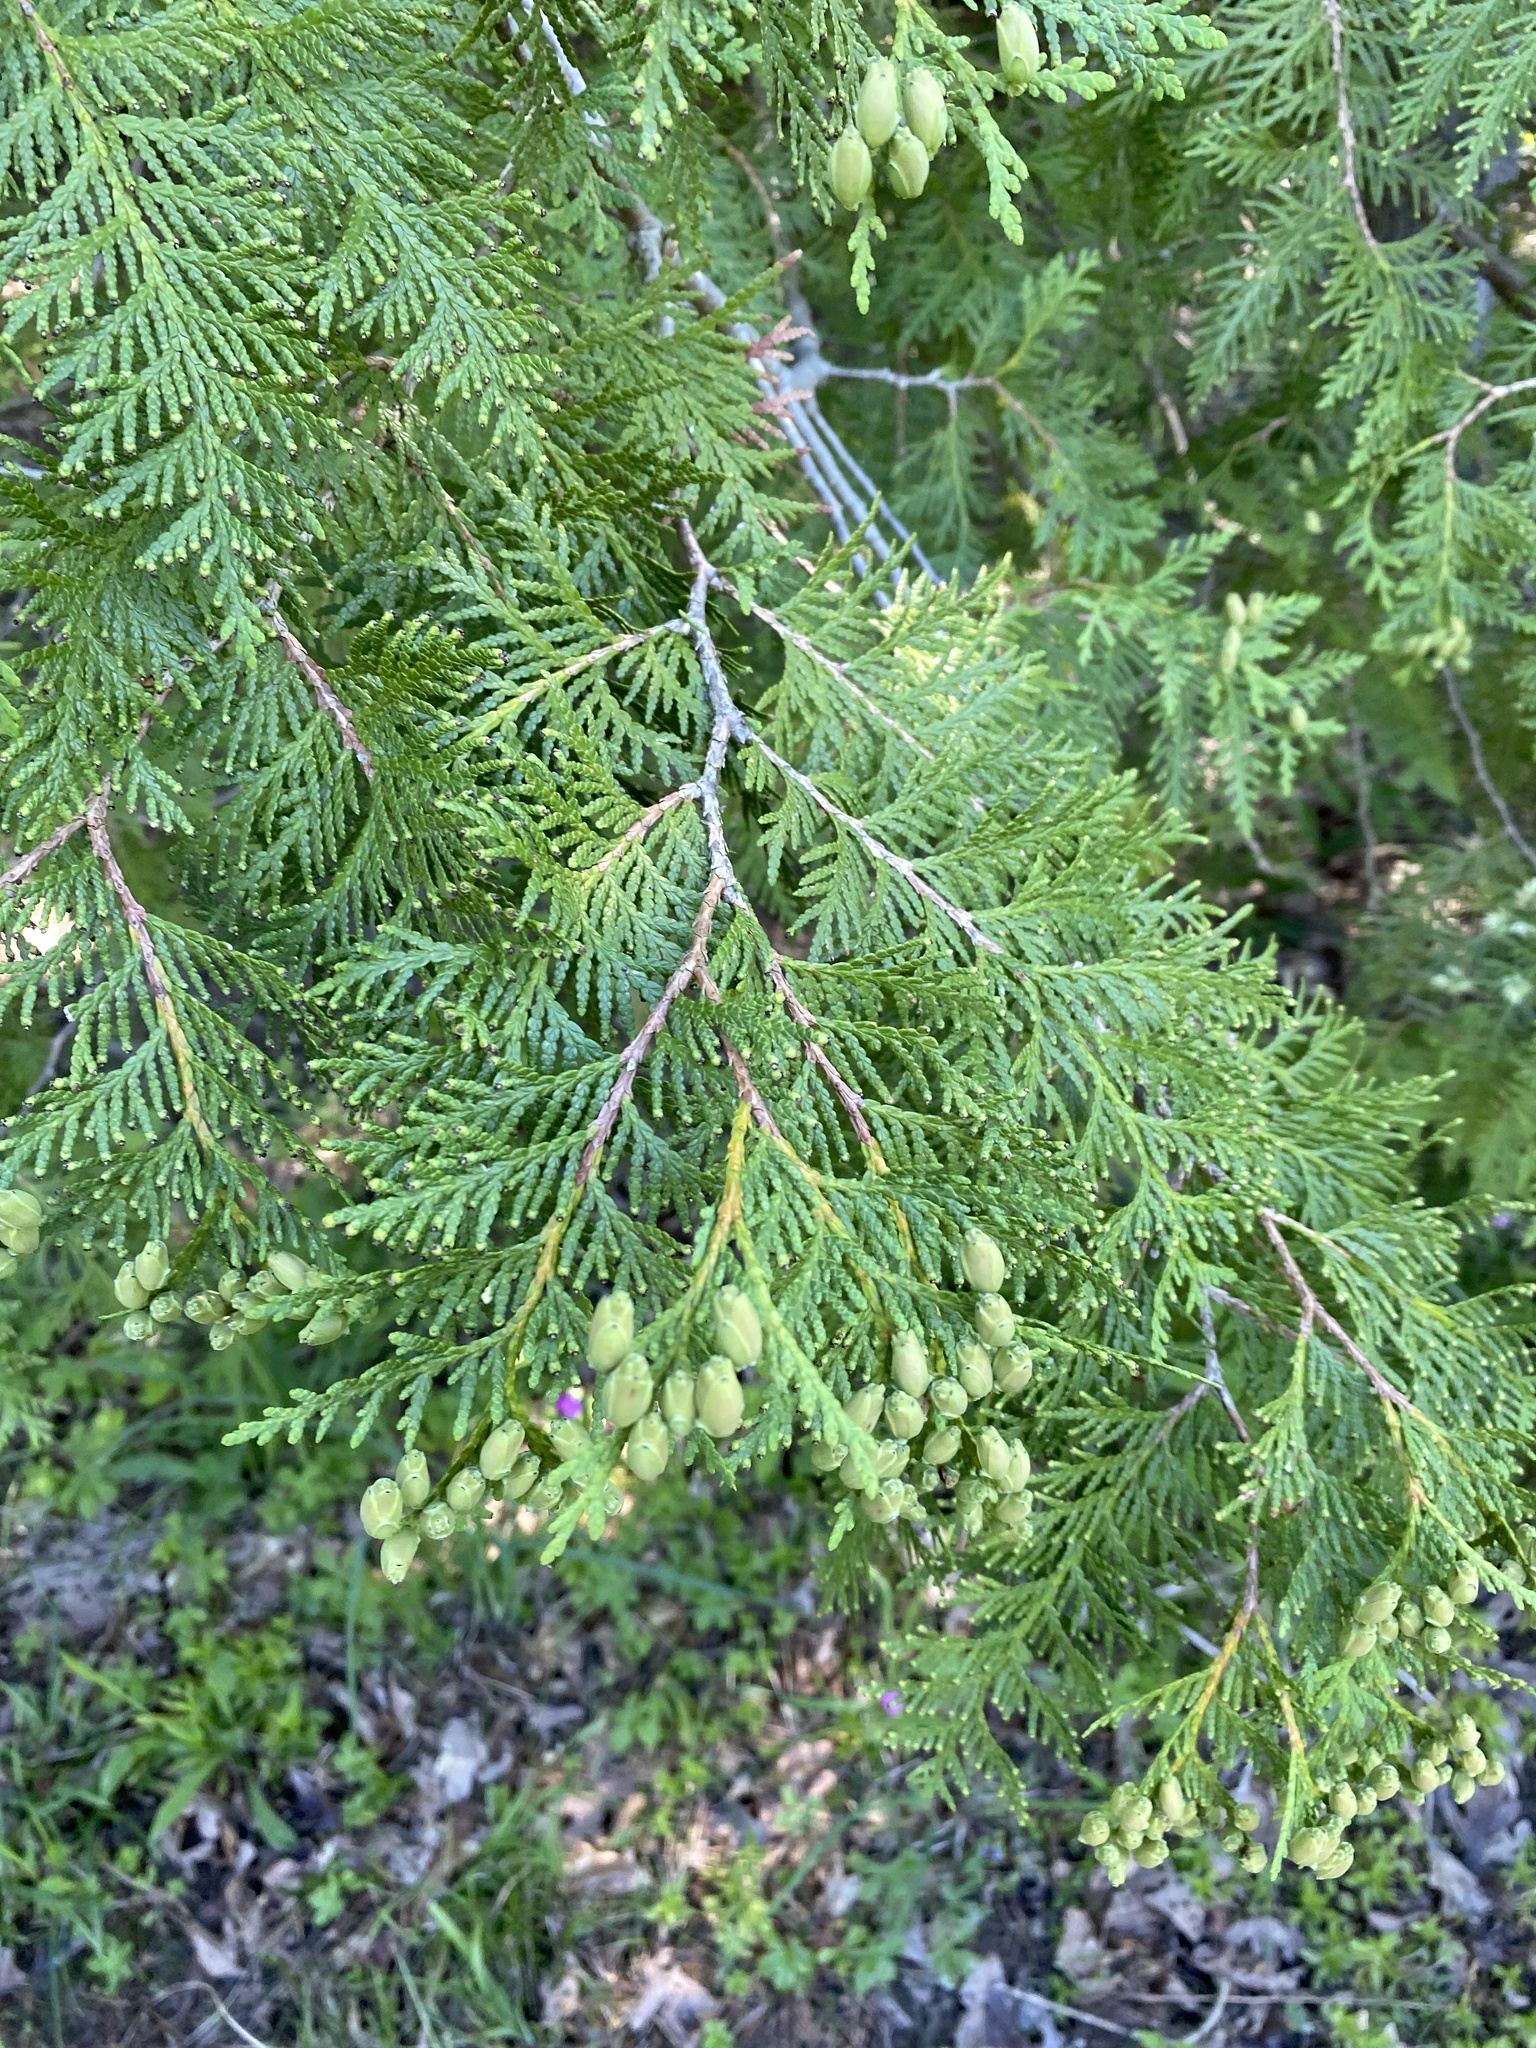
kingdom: Plantae
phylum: Tracheophyta
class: Pinopsida
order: Pinales
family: Cupressaceae
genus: Thuja
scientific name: Thuja occidentalis
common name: Northern white-cedar
